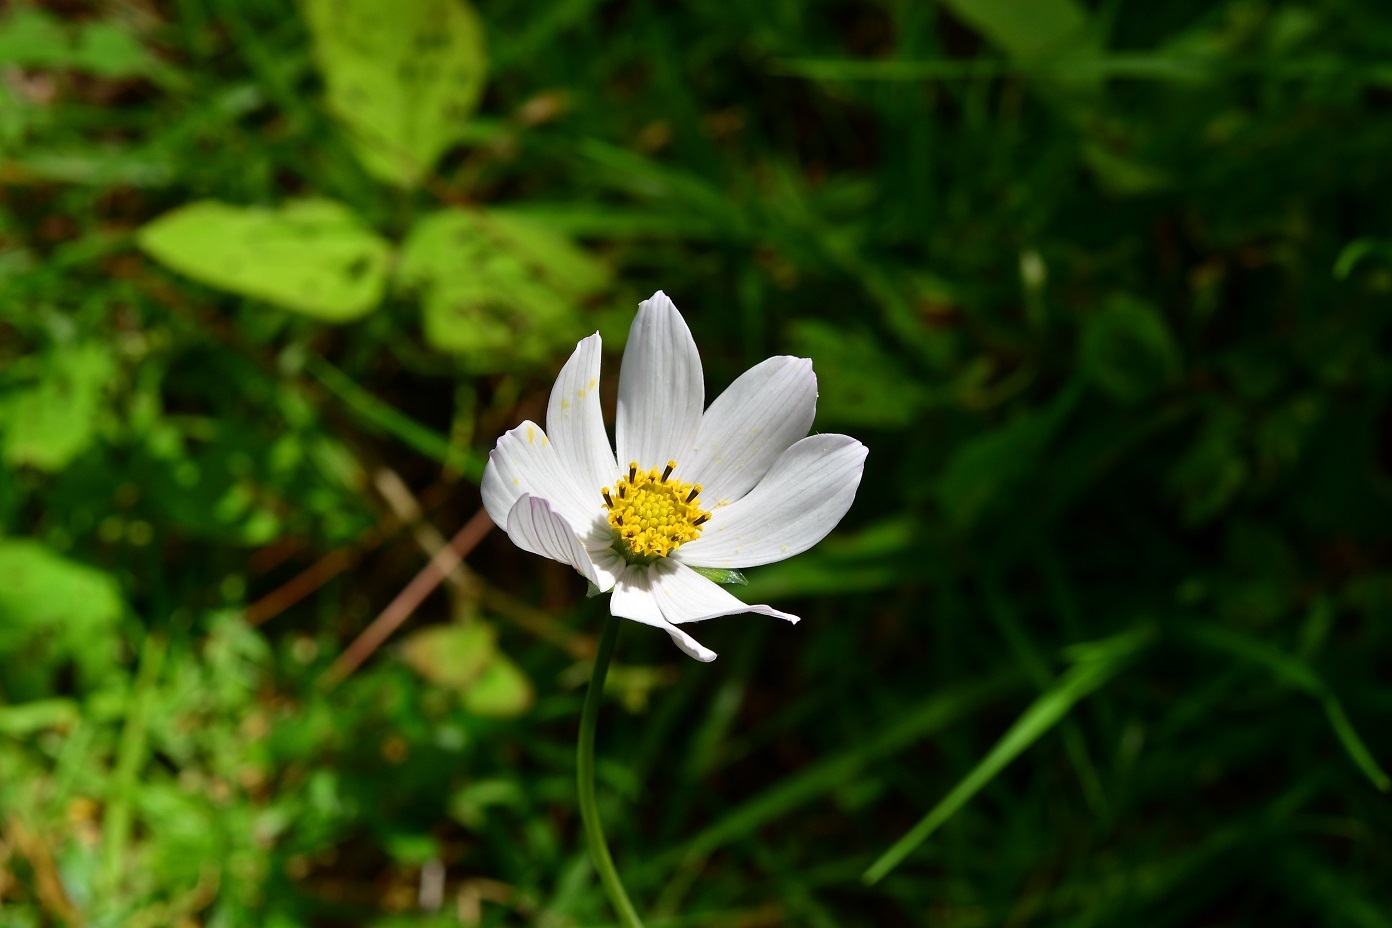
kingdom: Plantae
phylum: Tracheophyta
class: Magnoliopsida
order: Asterales
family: Asteraceae
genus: Cosmos
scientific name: Cosmos diversifolius
